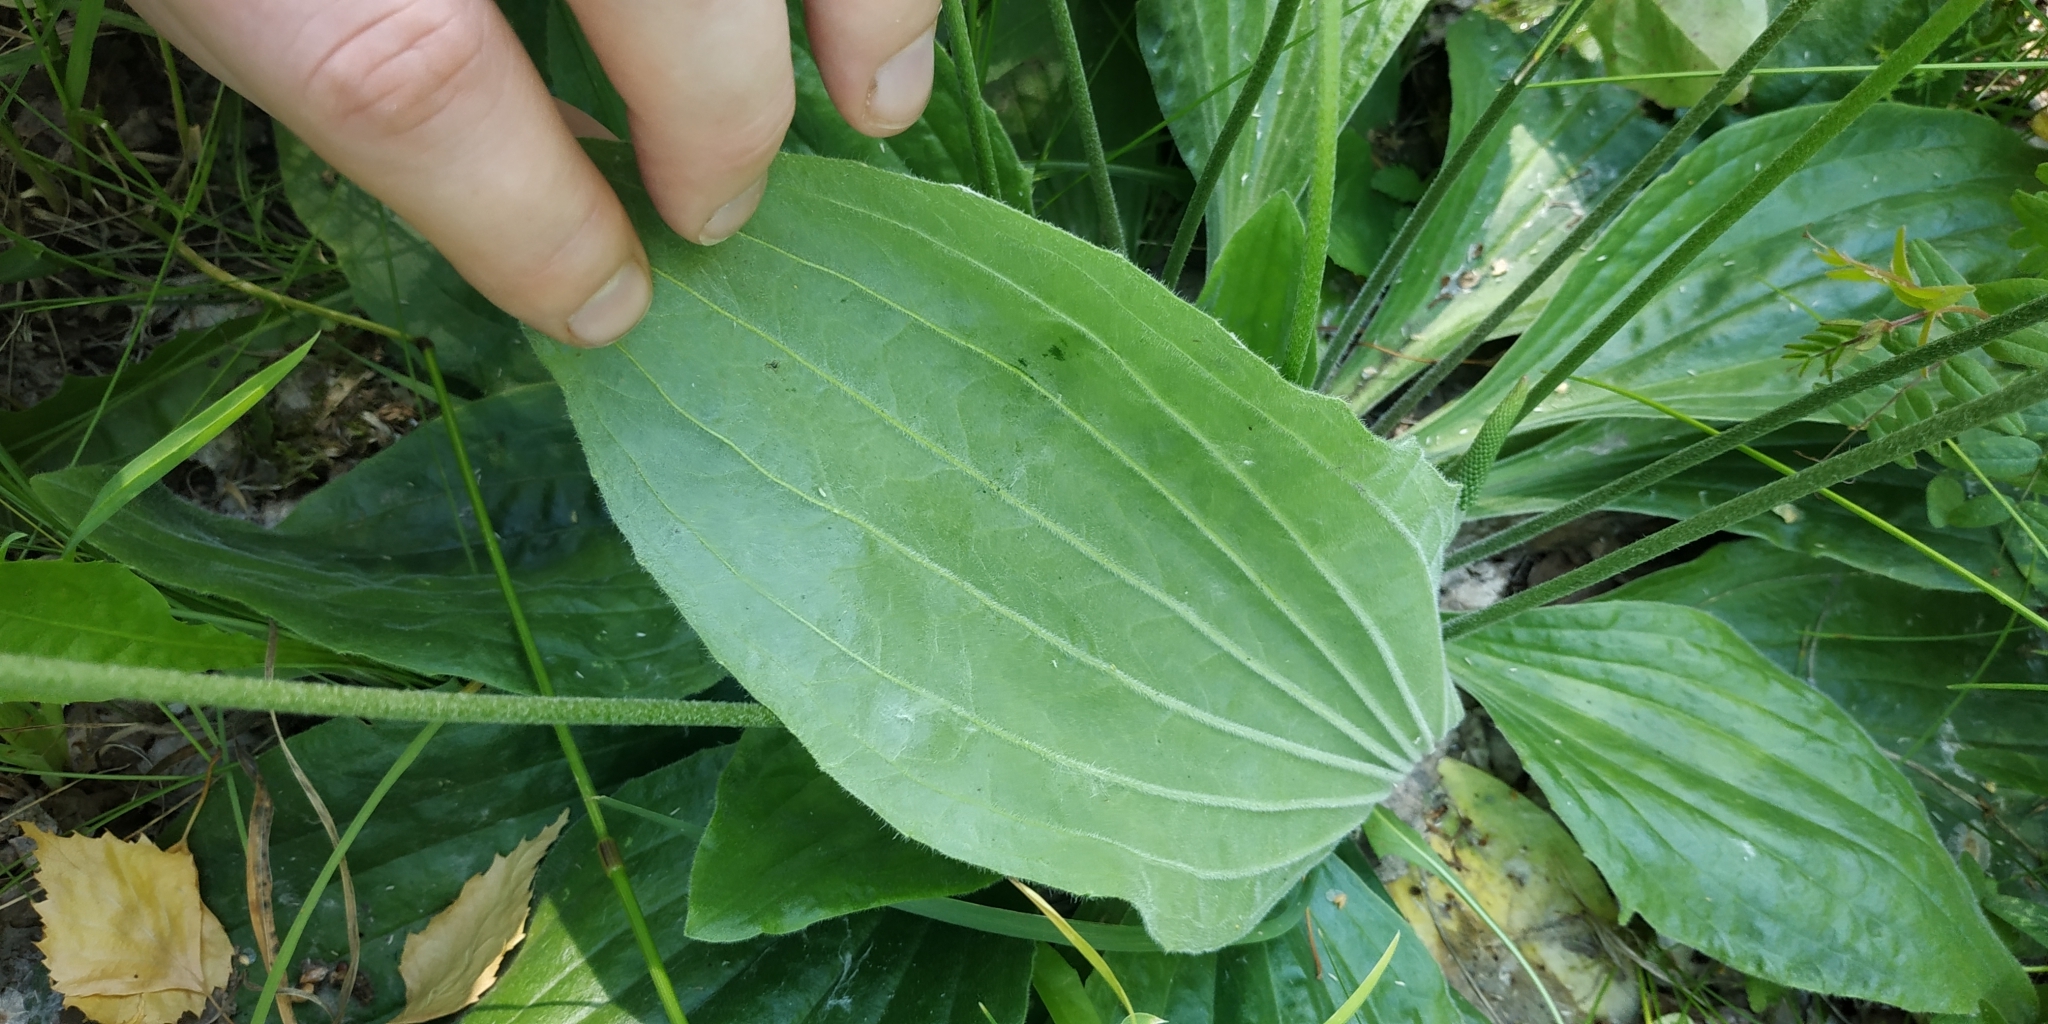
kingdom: Plantae
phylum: Tracheophyta
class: Magnoliopsida
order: Lamiales
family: Plantaginaceae
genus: Plantago
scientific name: Plantago media
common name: Hoary plantain
